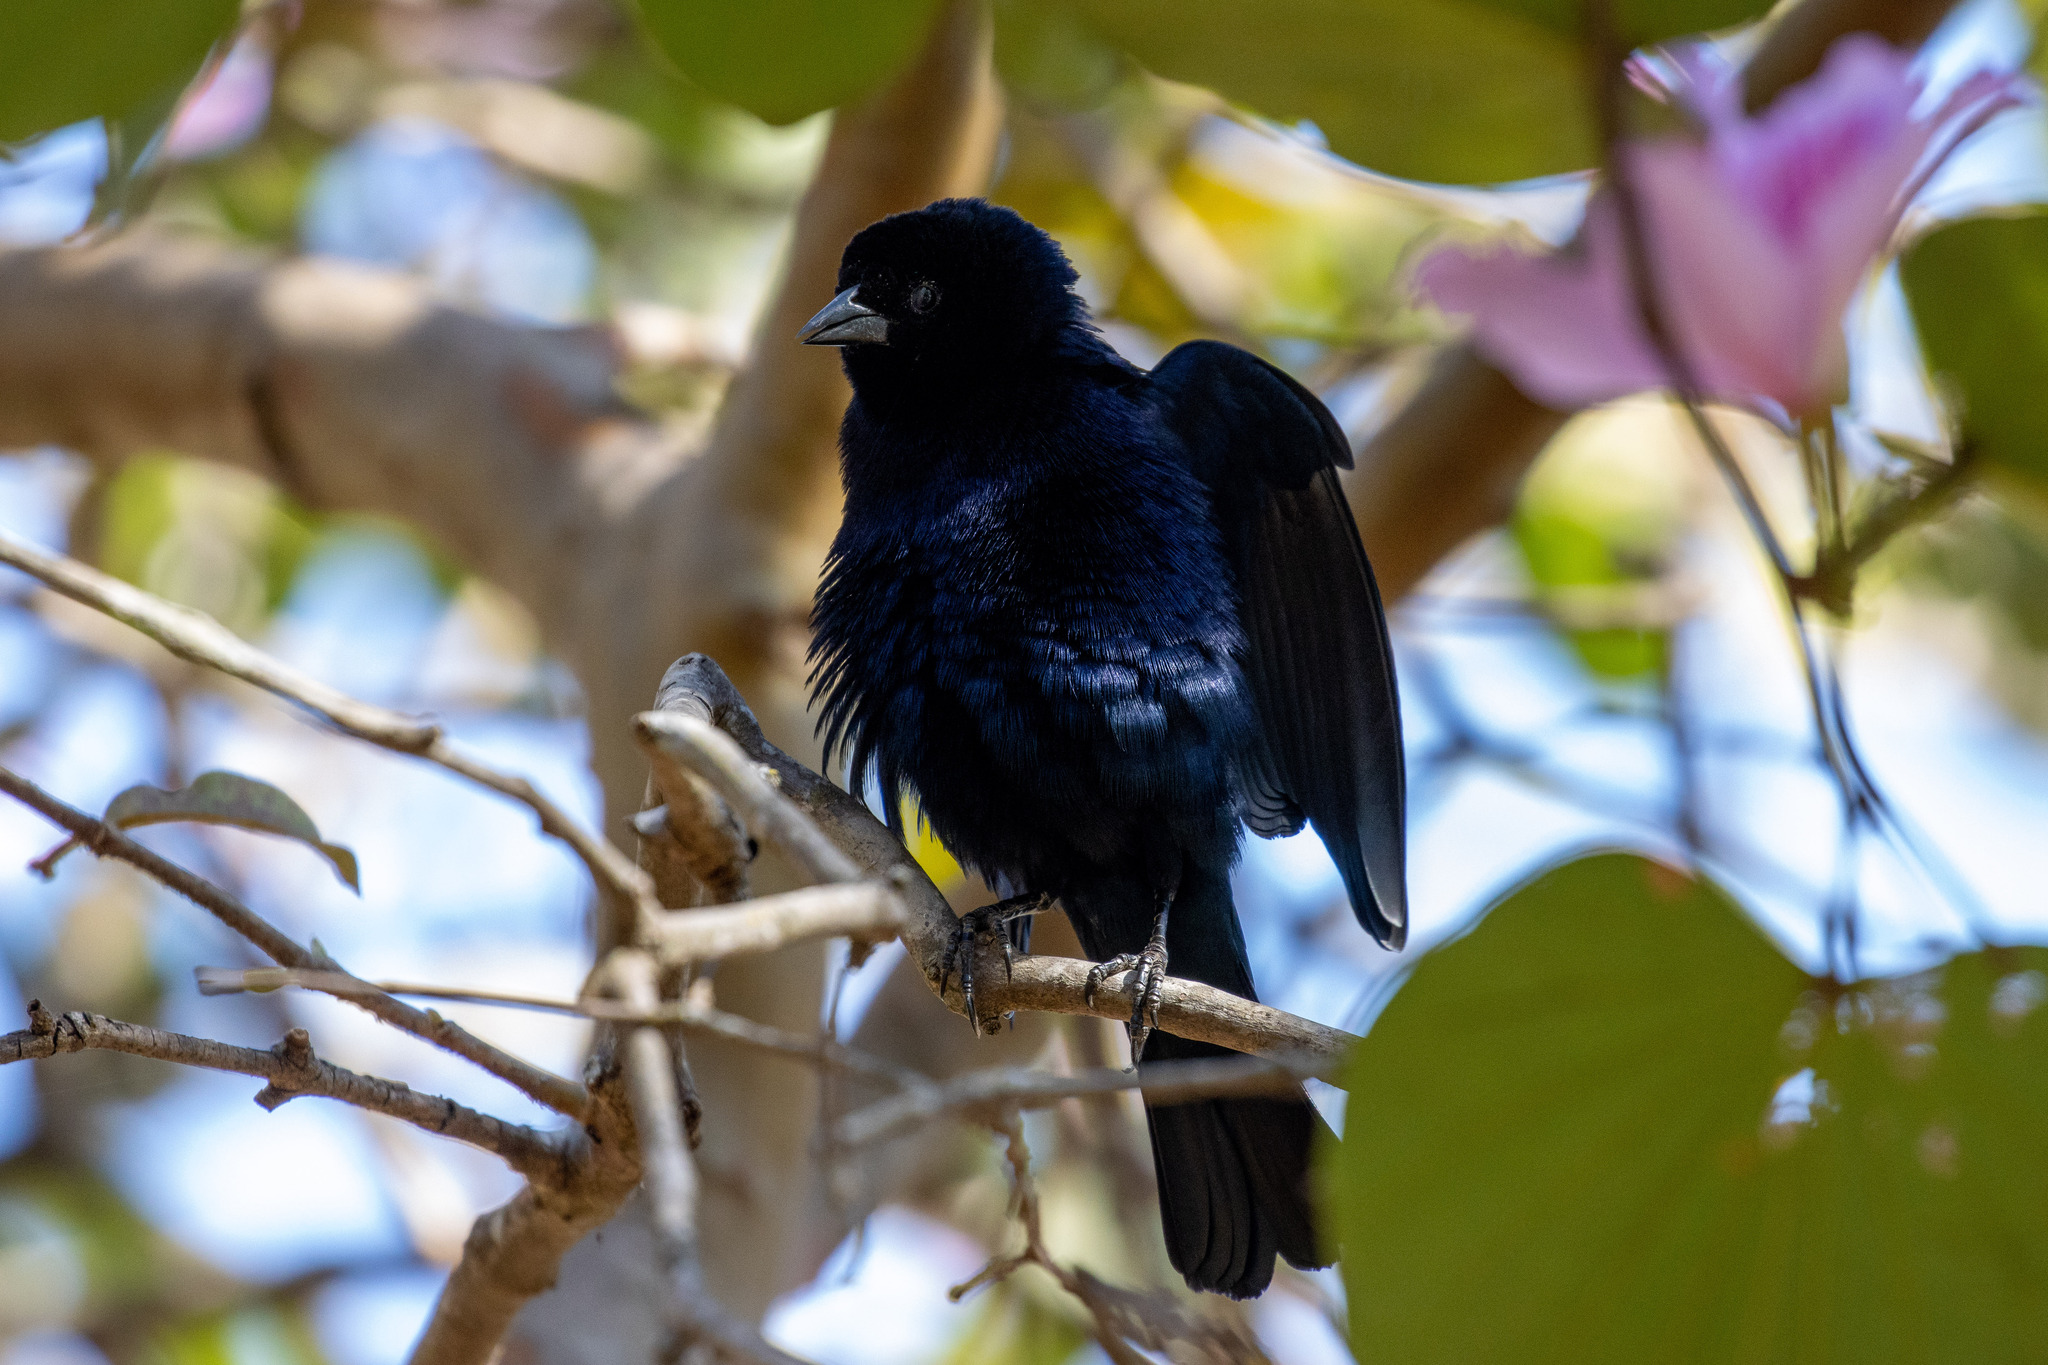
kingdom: Animalia
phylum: Chordata
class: Aves
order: Passeriformes
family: Icteridae
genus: Molothrus
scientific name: Molothrus bonariensis
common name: Shiny cowbird
